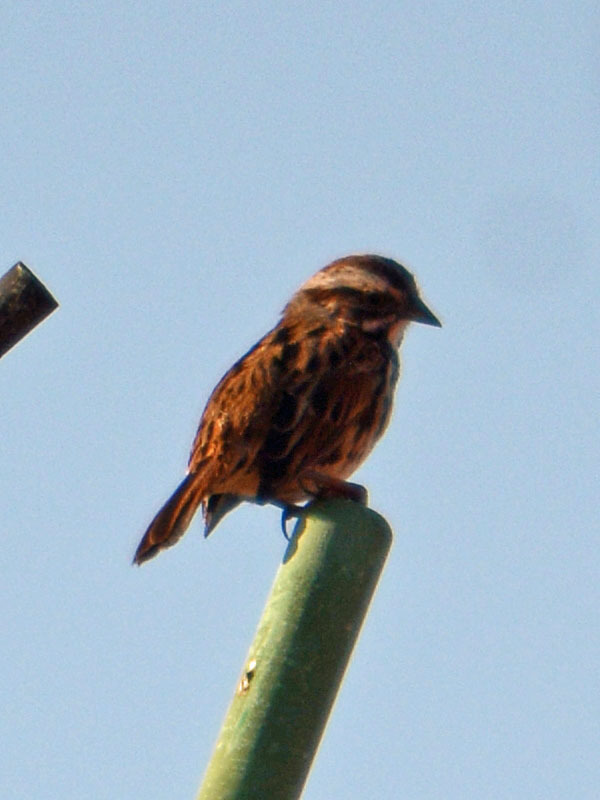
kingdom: Animalia
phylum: Chordata
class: Aves
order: Passeriformes
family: Passerellidae
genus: Melospiza
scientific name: Melospiza melodia
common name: Song sparrow
